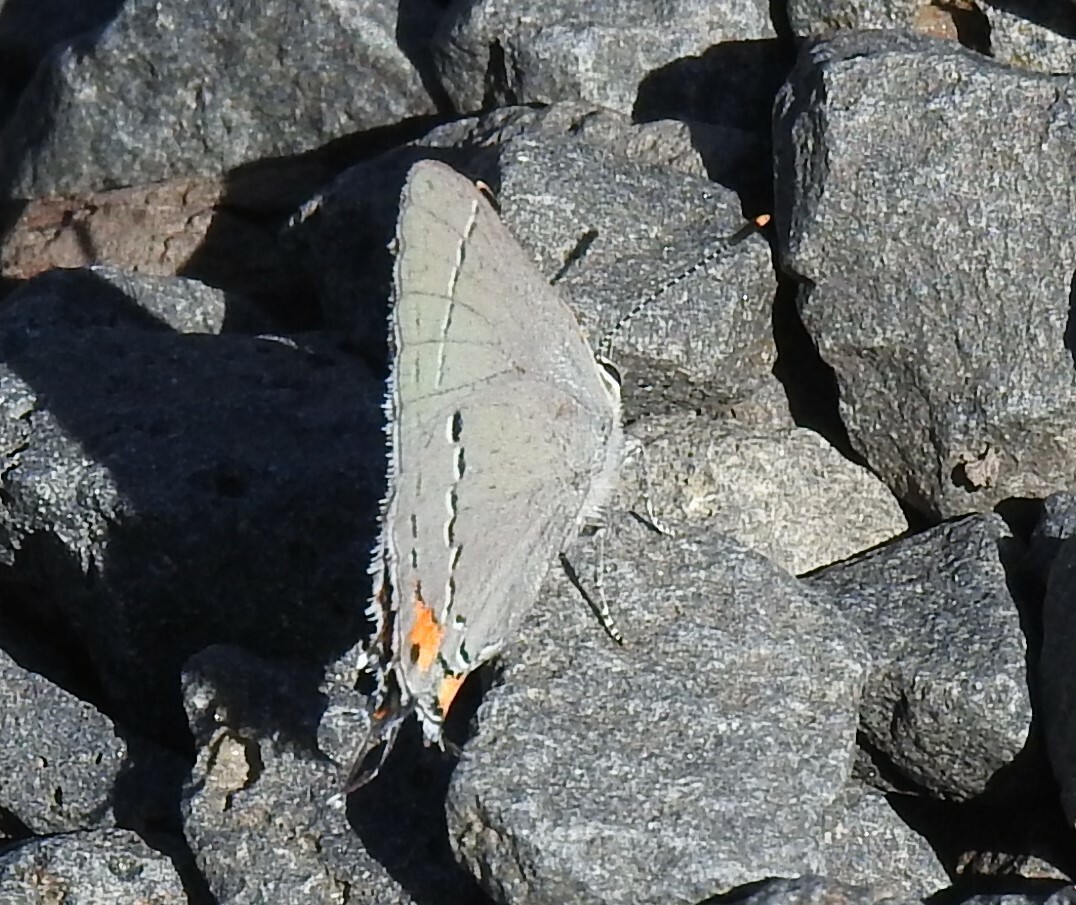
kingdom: Animalia
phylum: Arthropoda
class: Insecta
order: Lepidoptera
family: Lycaenidae
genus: Strymon
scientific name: Strymon melinus
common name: Gray hairstreak
